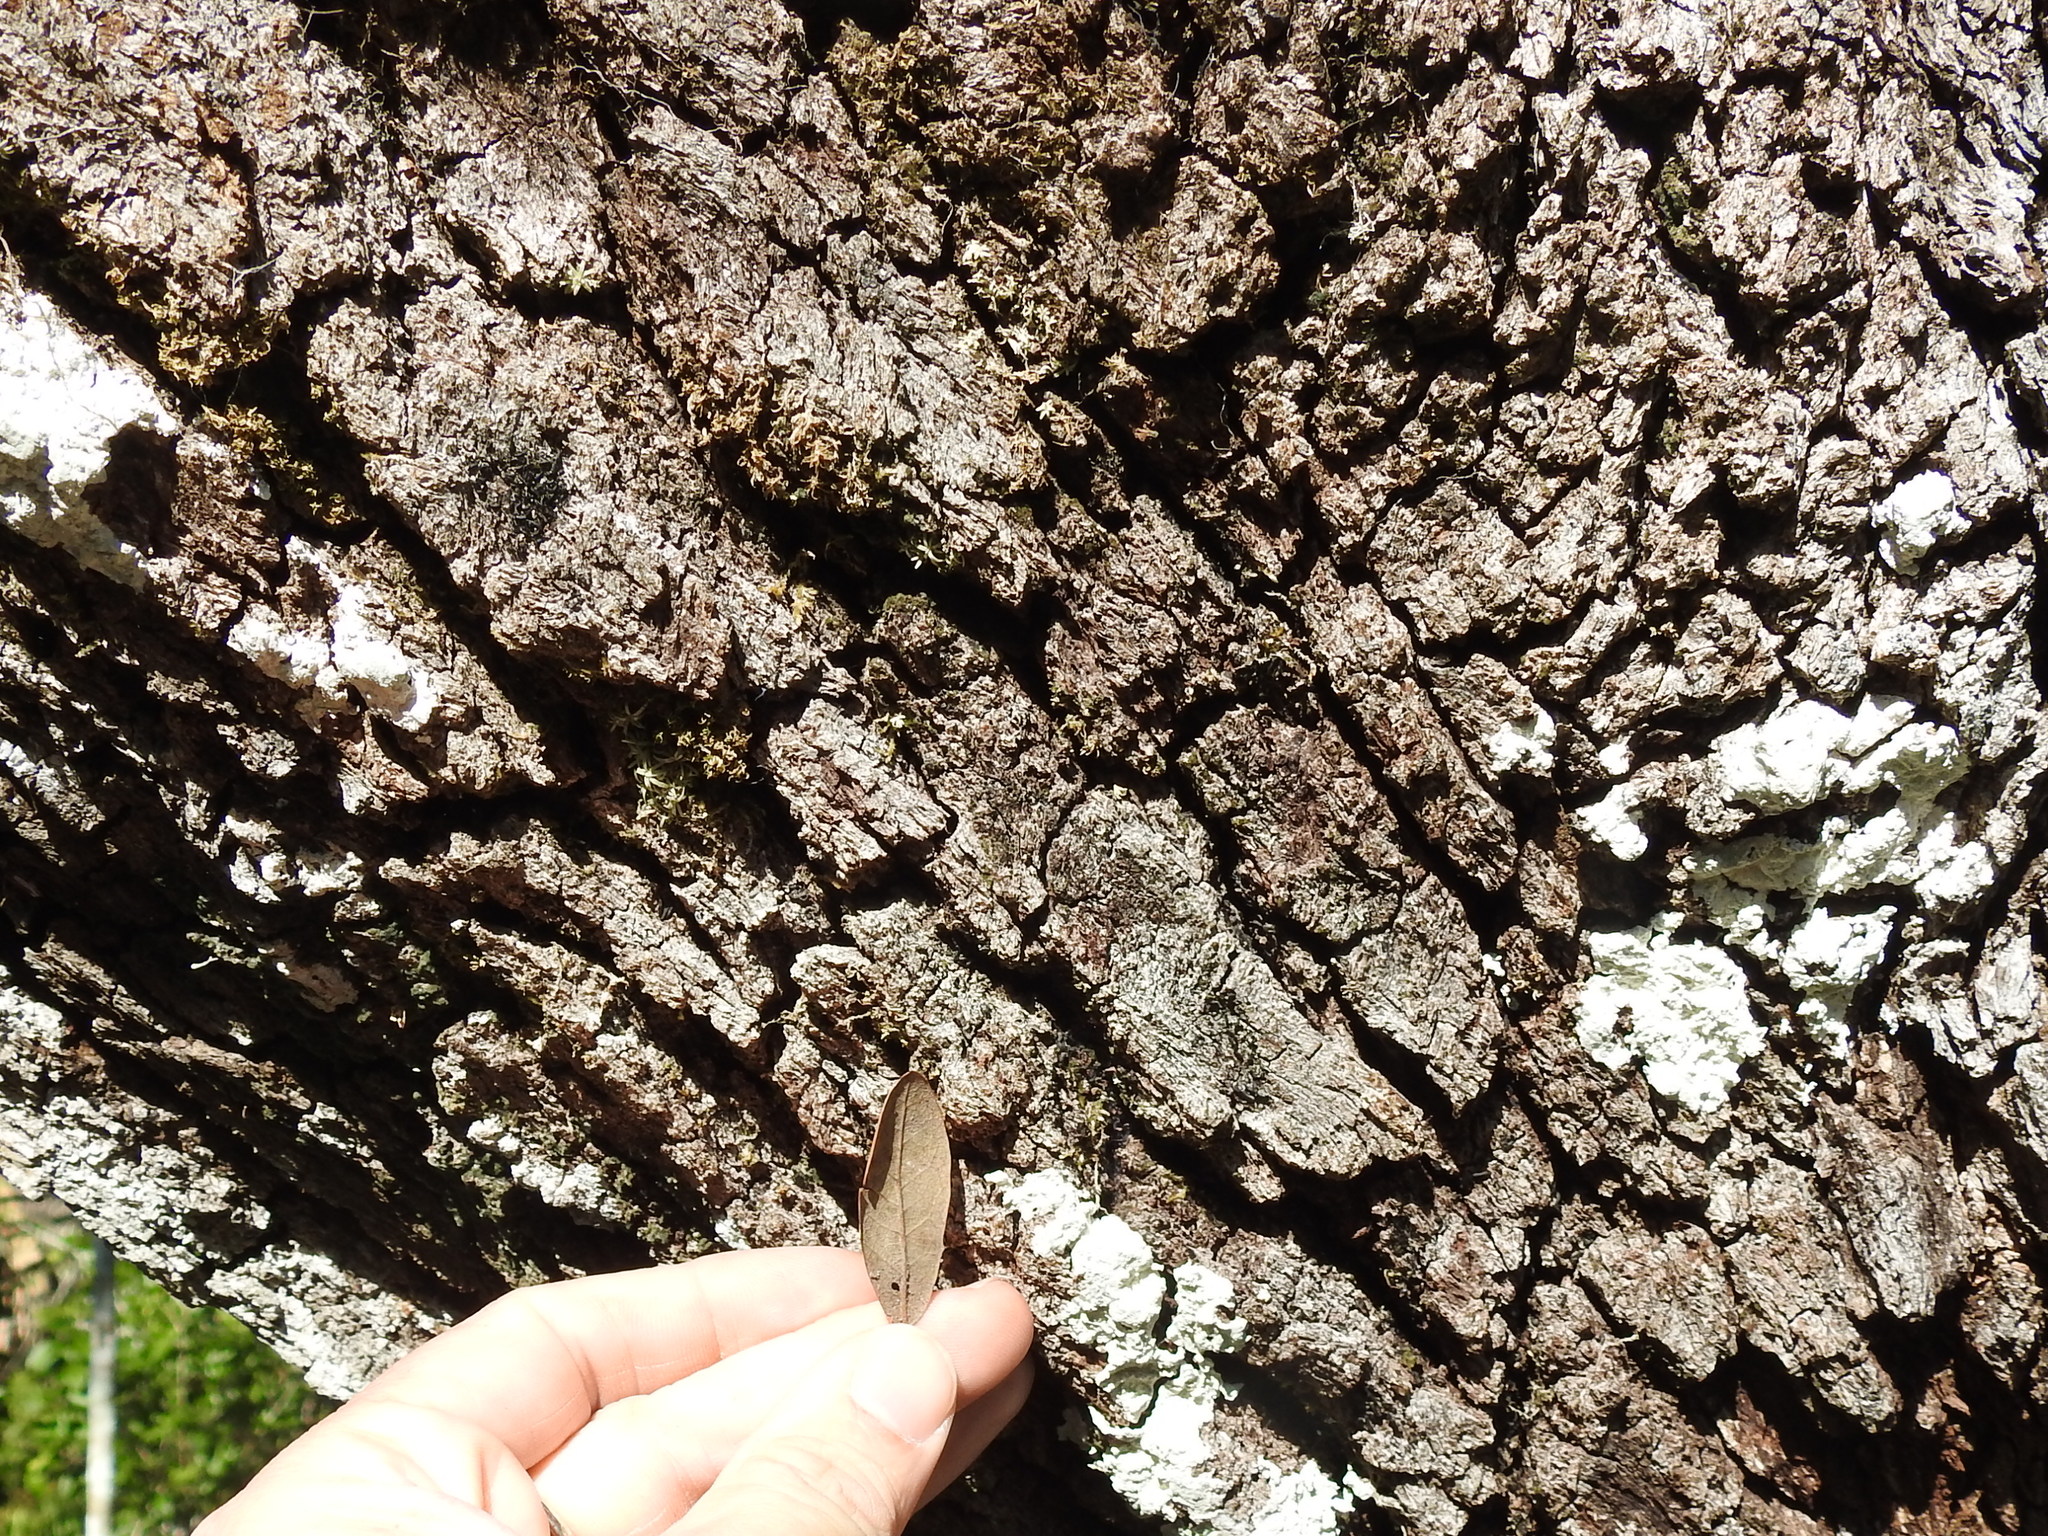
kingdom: Plantae
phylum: Tracheophyta
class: Magnoliopsida
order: Fagales
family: Fagaceae
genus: Quercus
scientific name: Quercus virginiana
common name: Southern live oak
